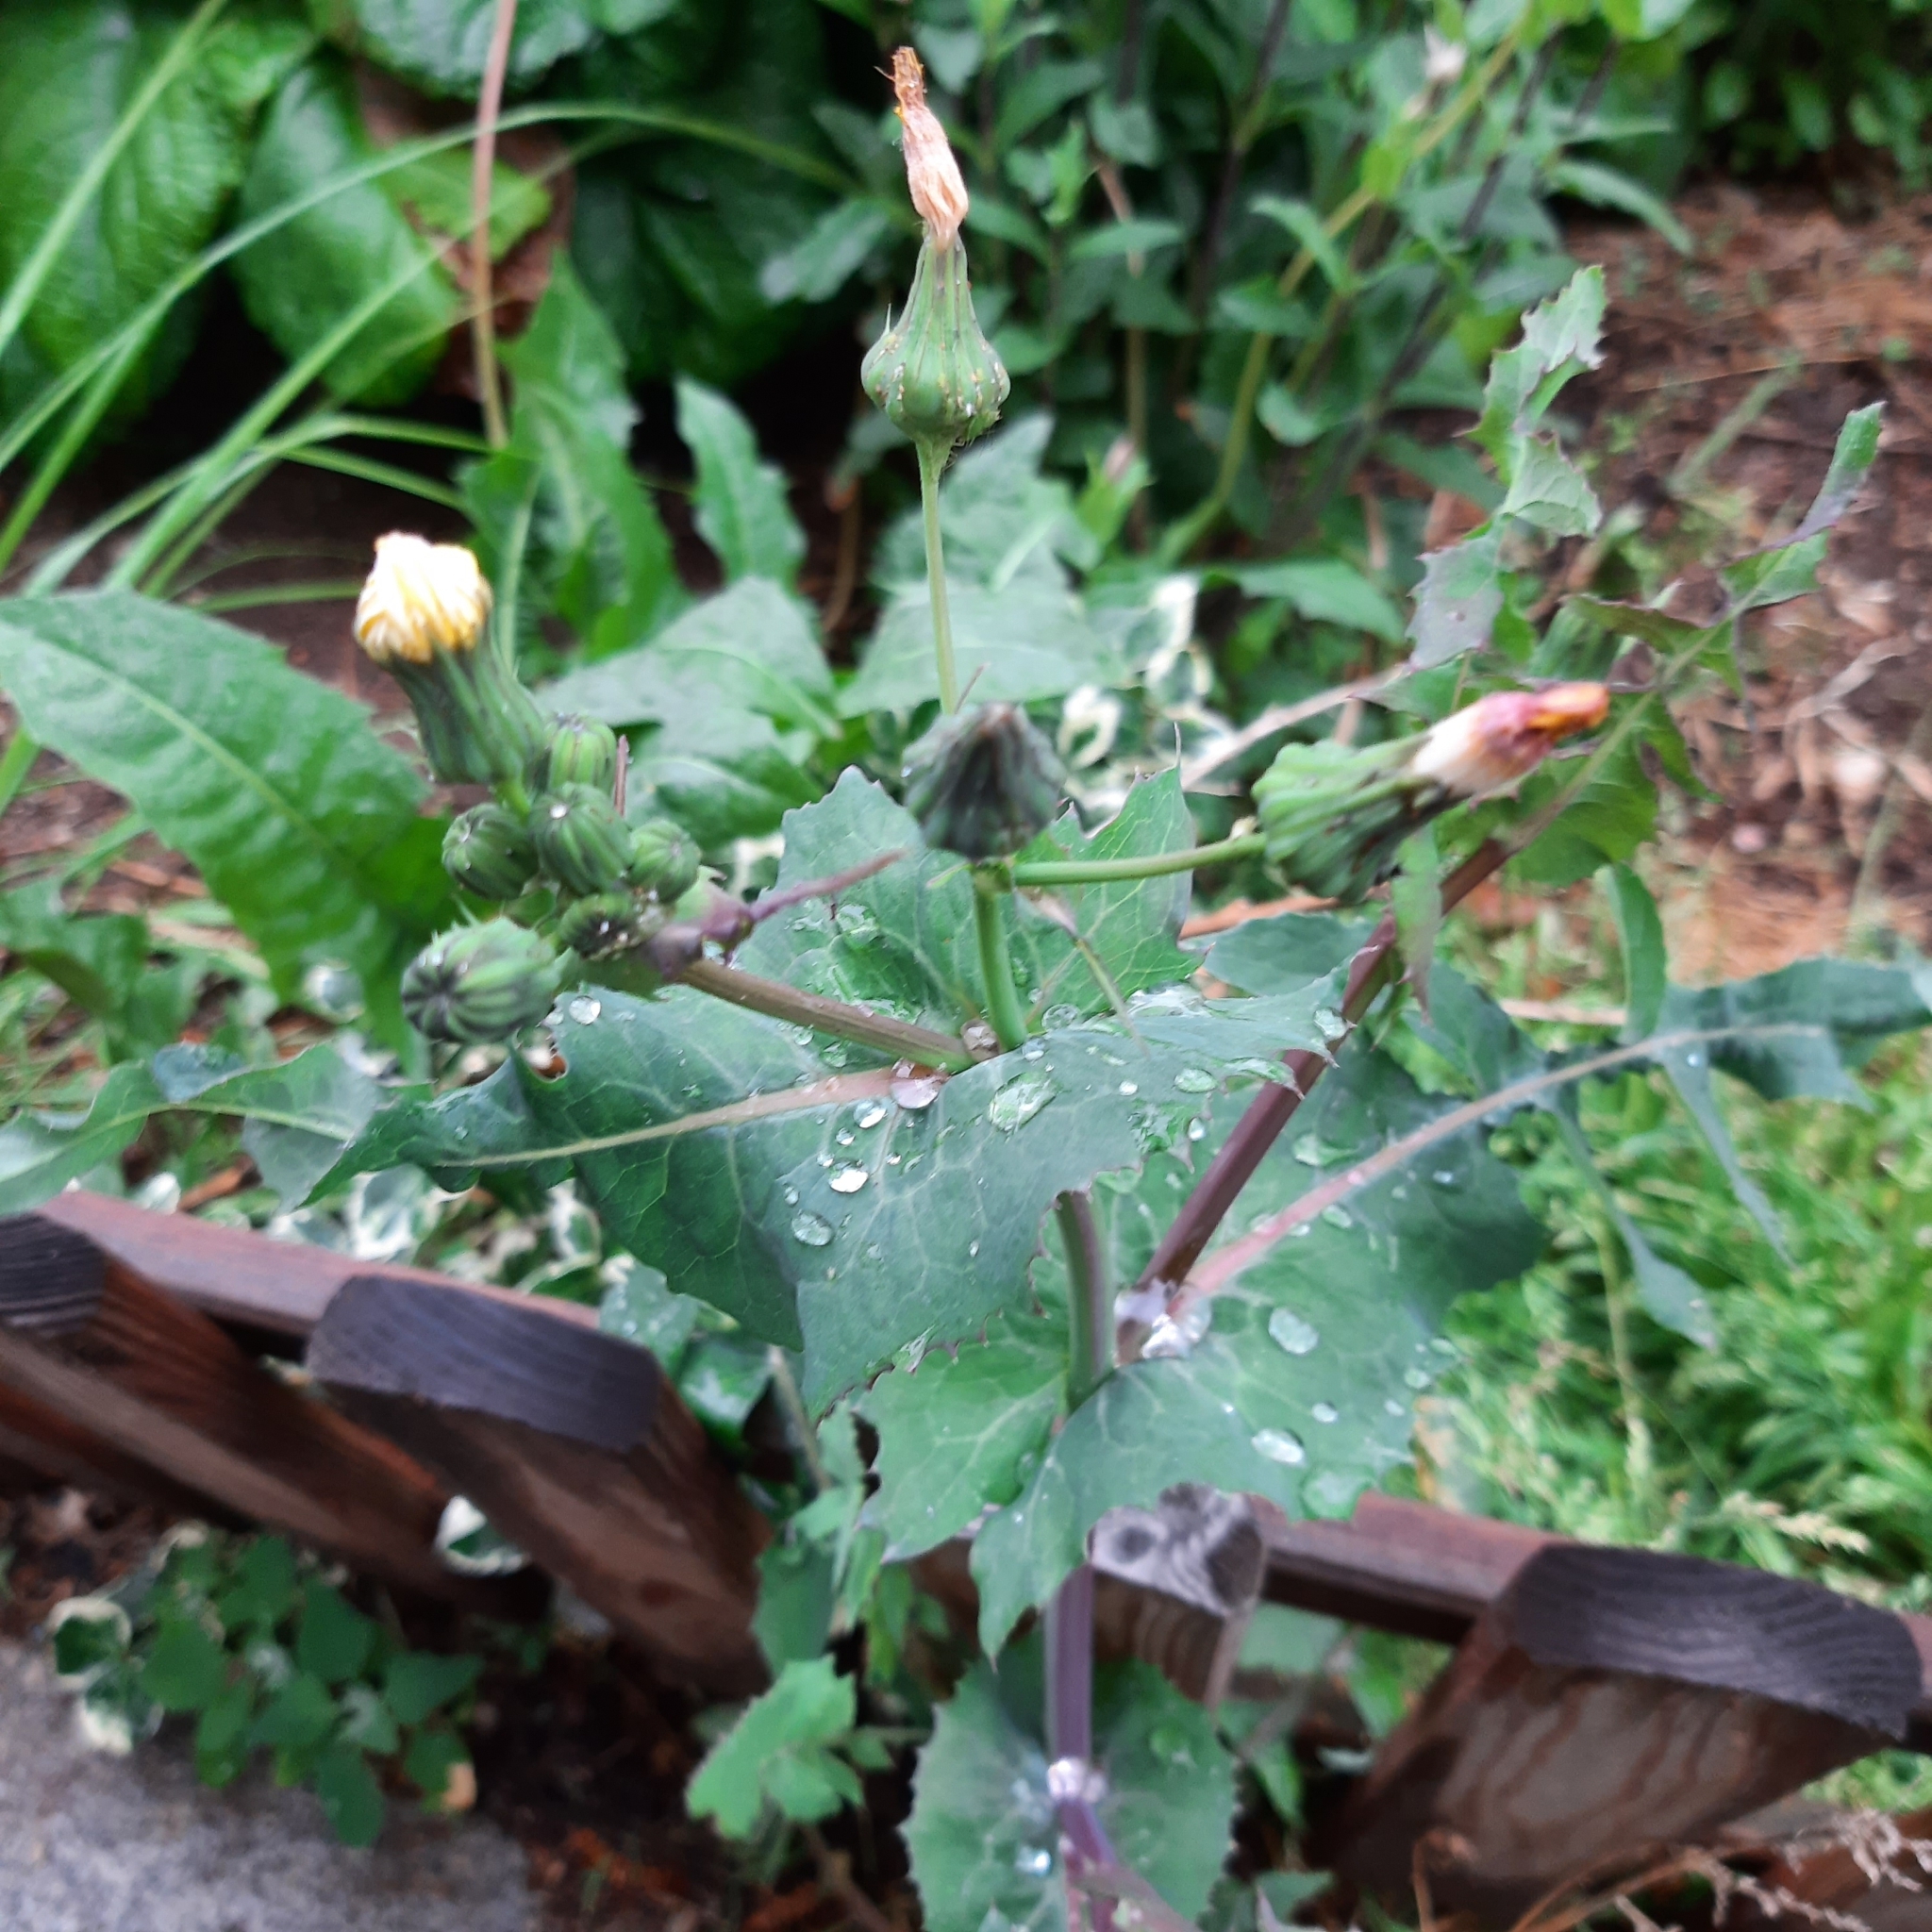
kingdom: Plantae
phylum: Tracheophyta
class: Magnoliopsida
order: Asterales
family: Asteraceae
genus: Sonchus
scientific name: Sonchus oleraceus
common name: Common sowthistle
